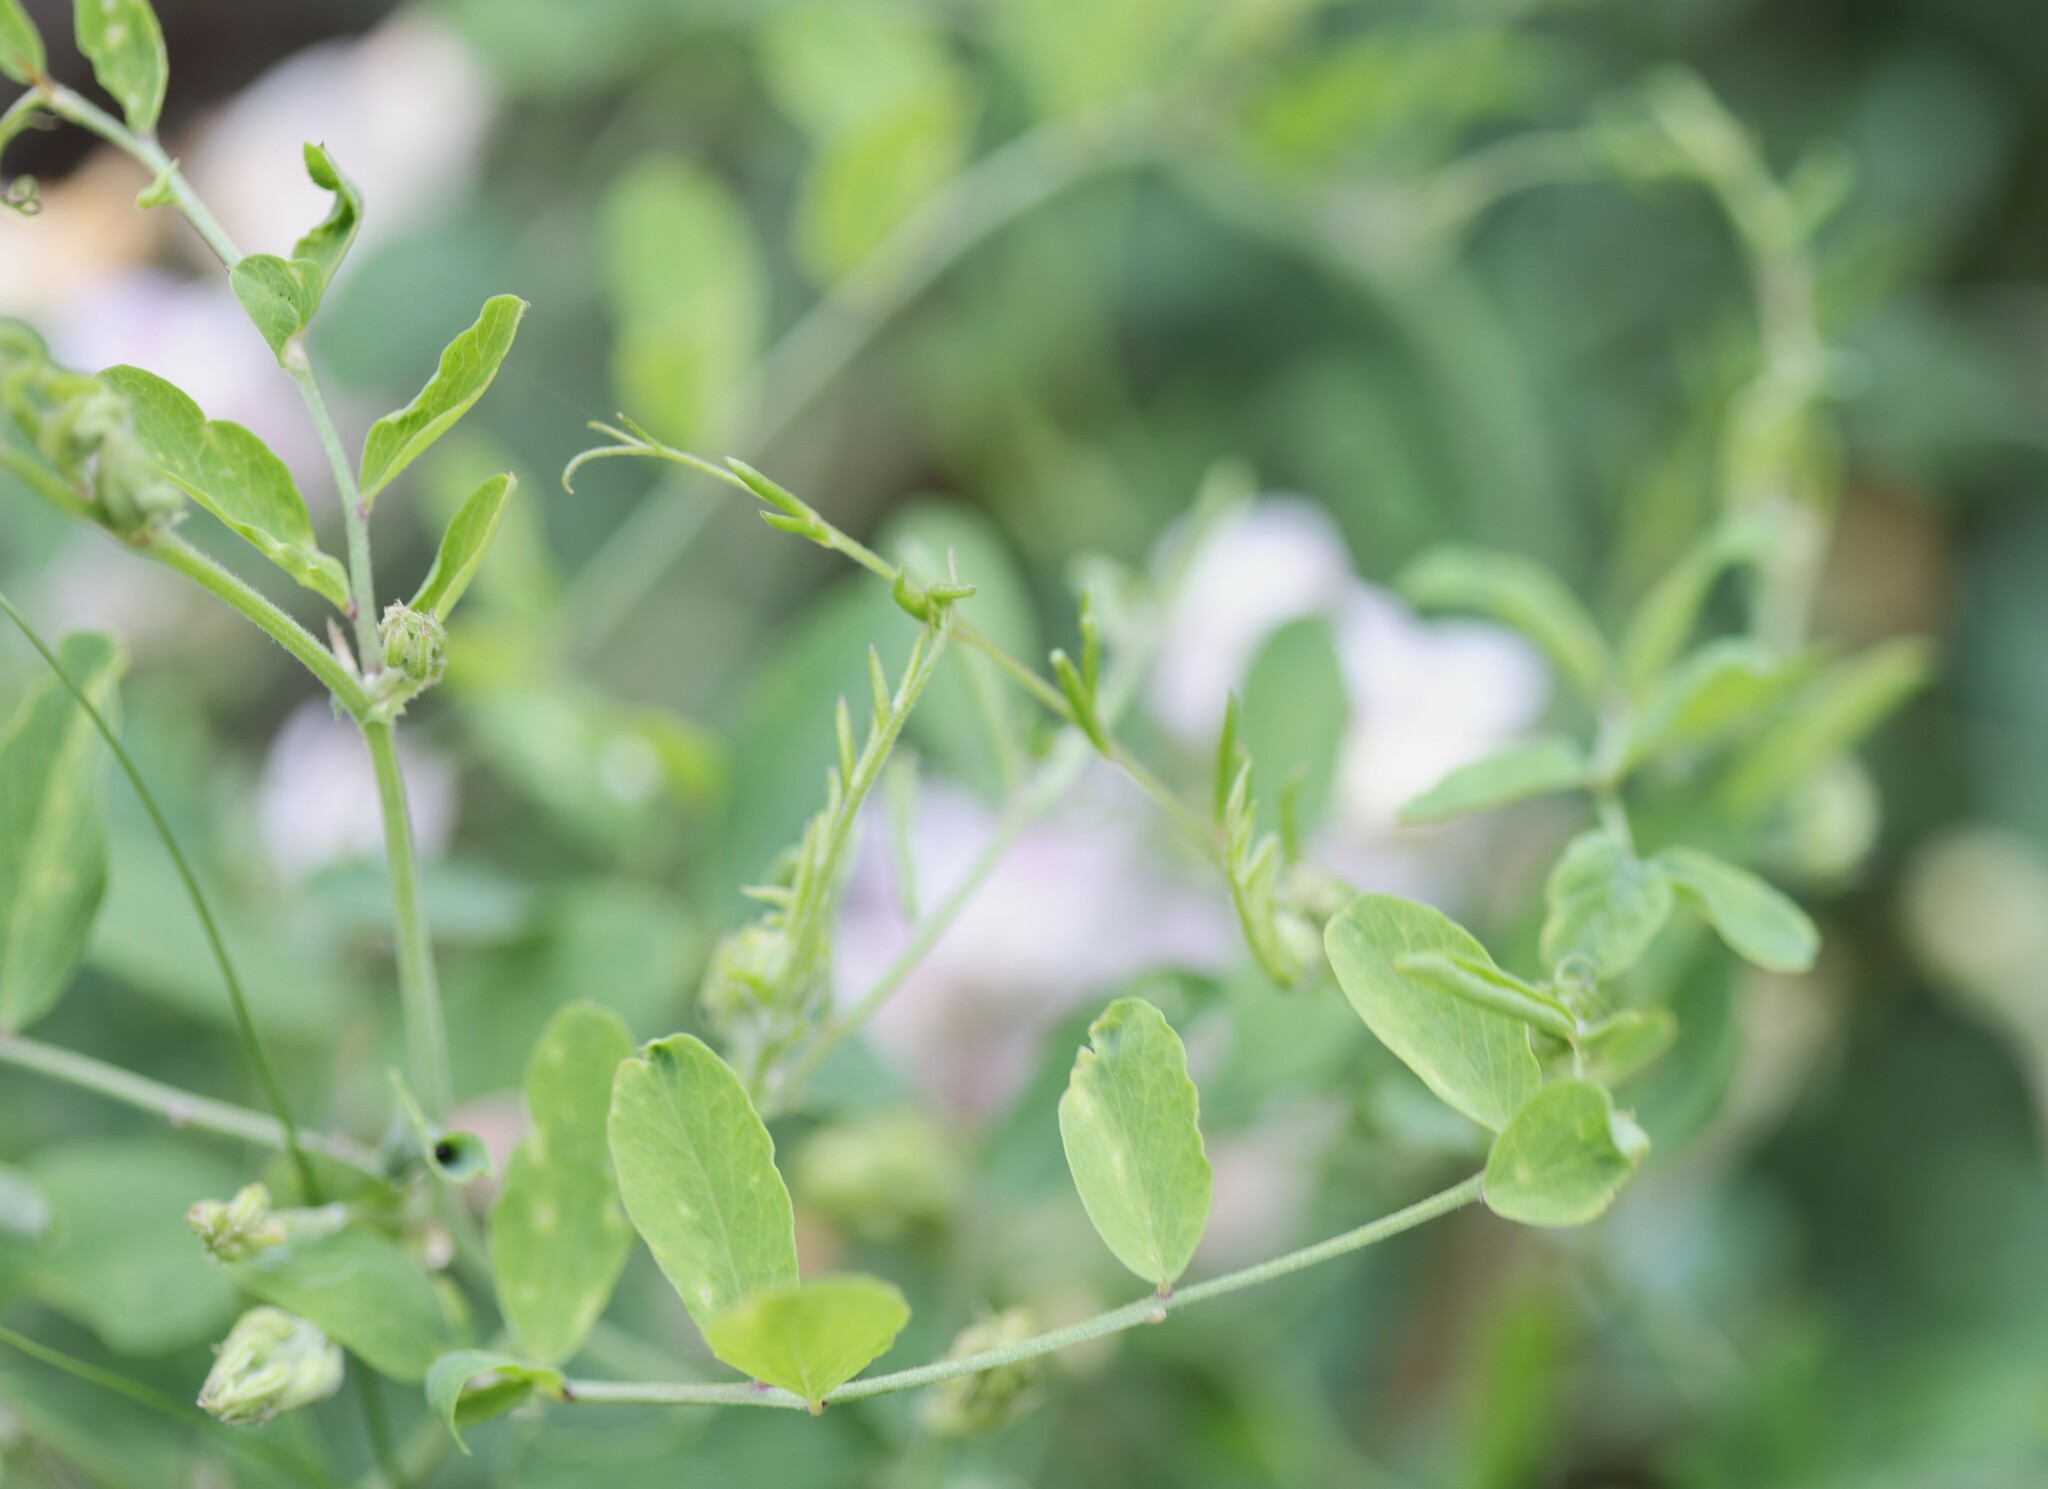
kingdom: Plantae
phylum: Tracheophyta
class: Magnoliopsida
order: Fabales
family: Fabaceae
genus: Lathyrus
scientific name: Lathyrus vestitus
